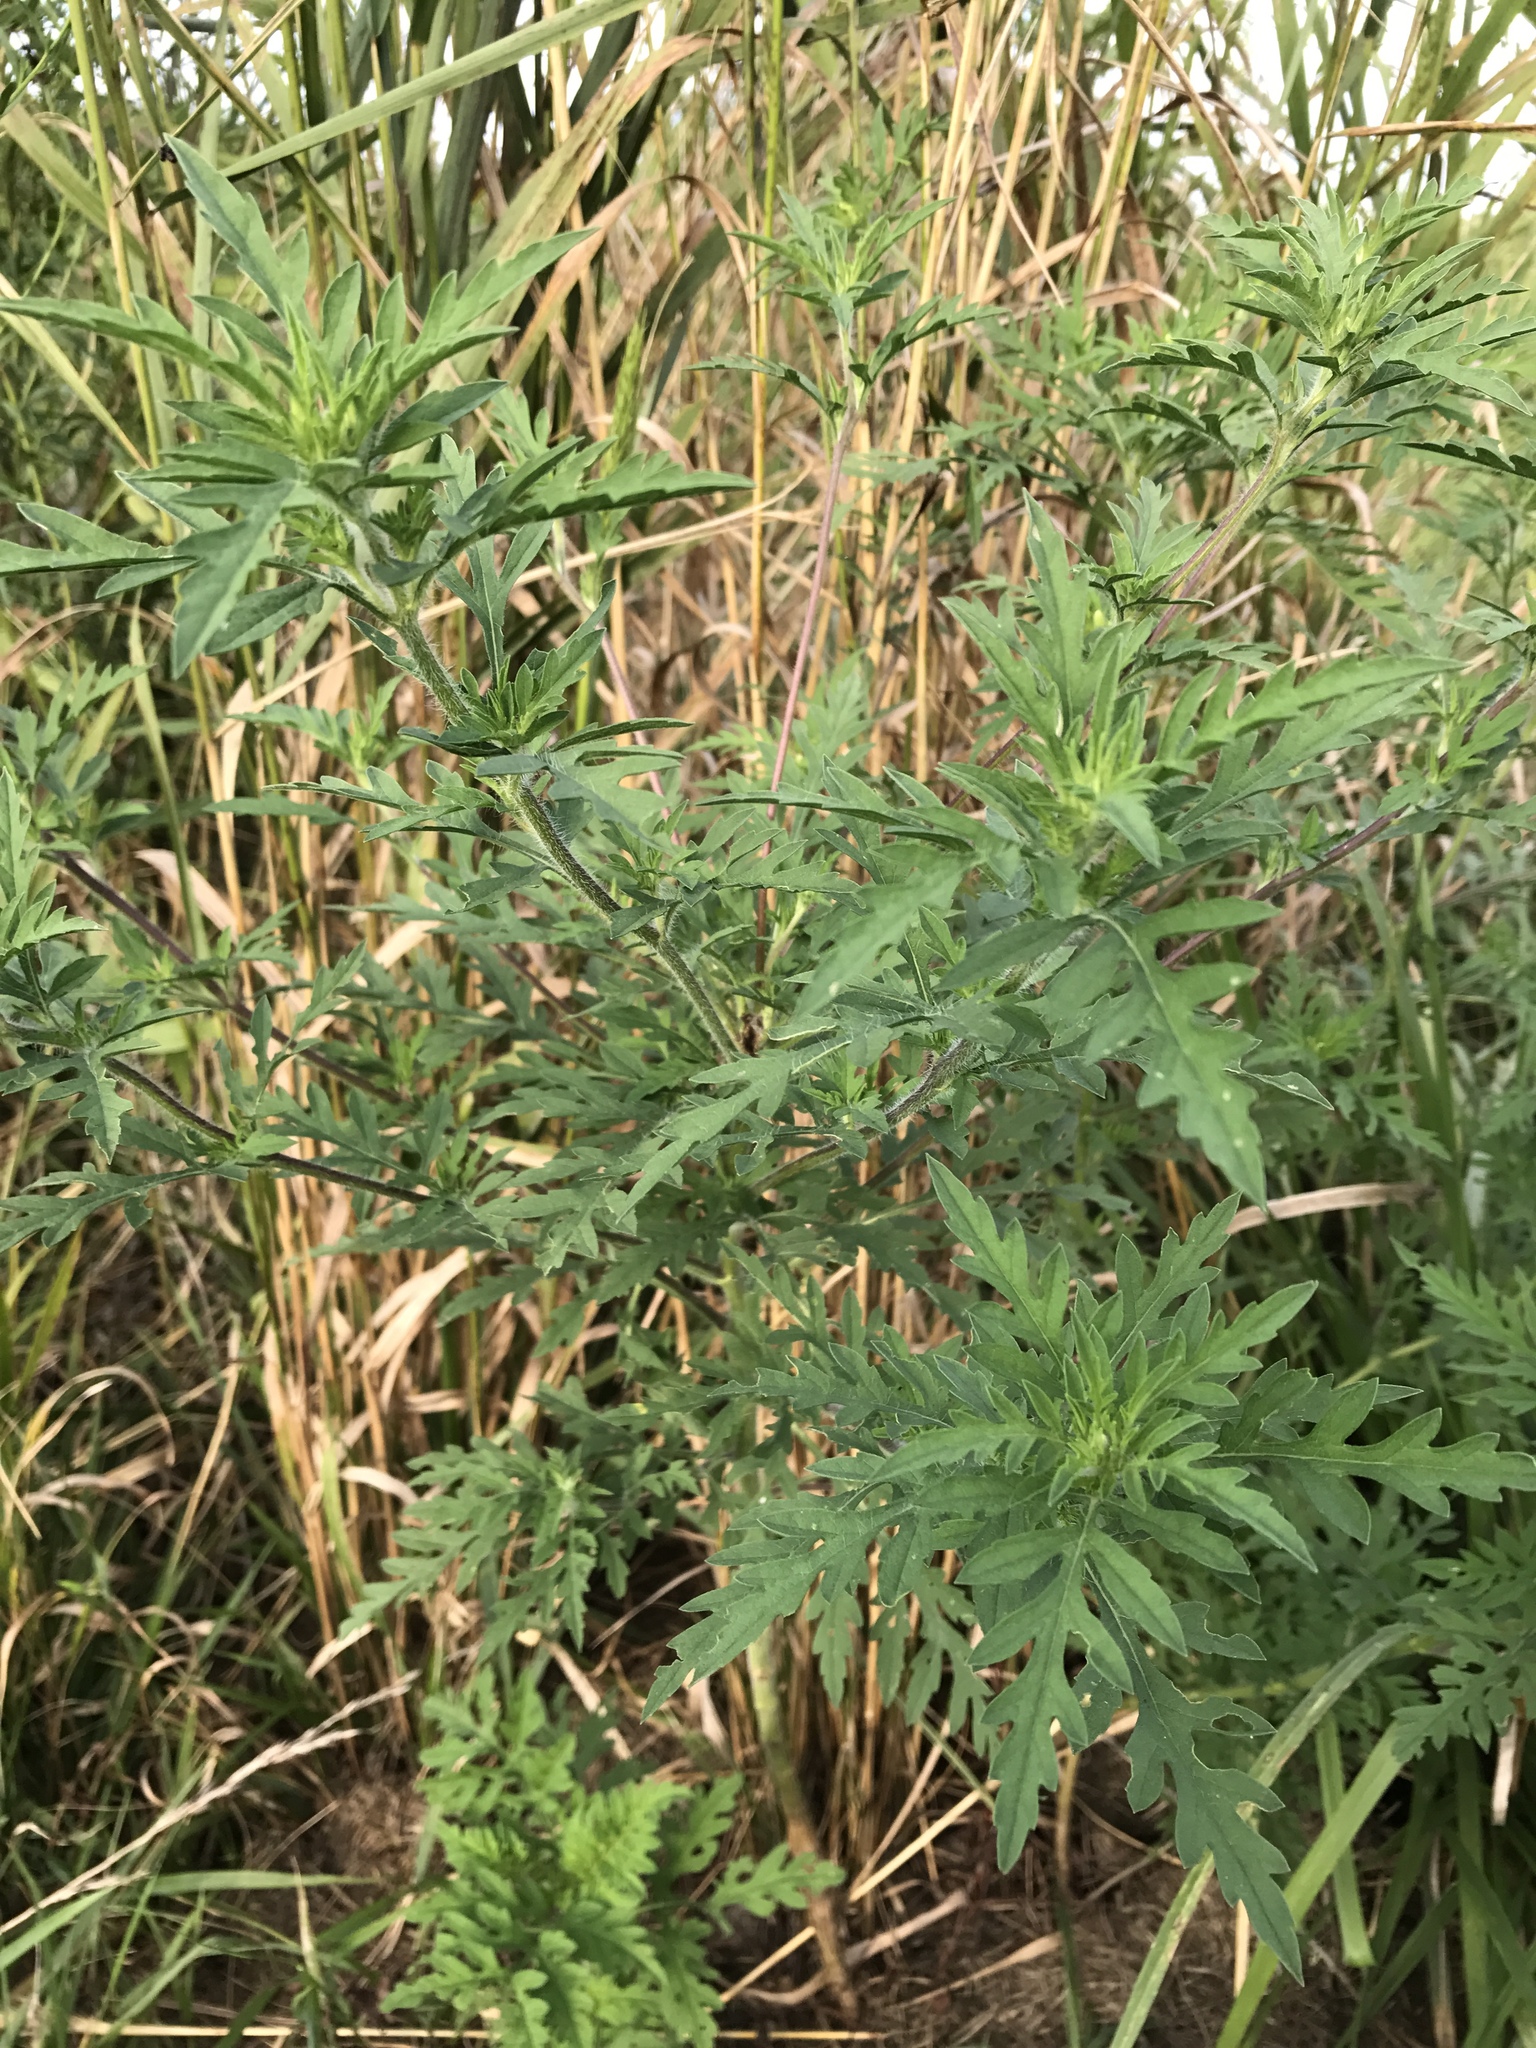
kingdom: Plantae
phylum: Tracheophyta
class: Magnoliopsida
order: Asterales
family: Asteraceae
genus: Ambrosia
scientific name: Ambrosia artemisiifolia
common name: Annual ragweed
